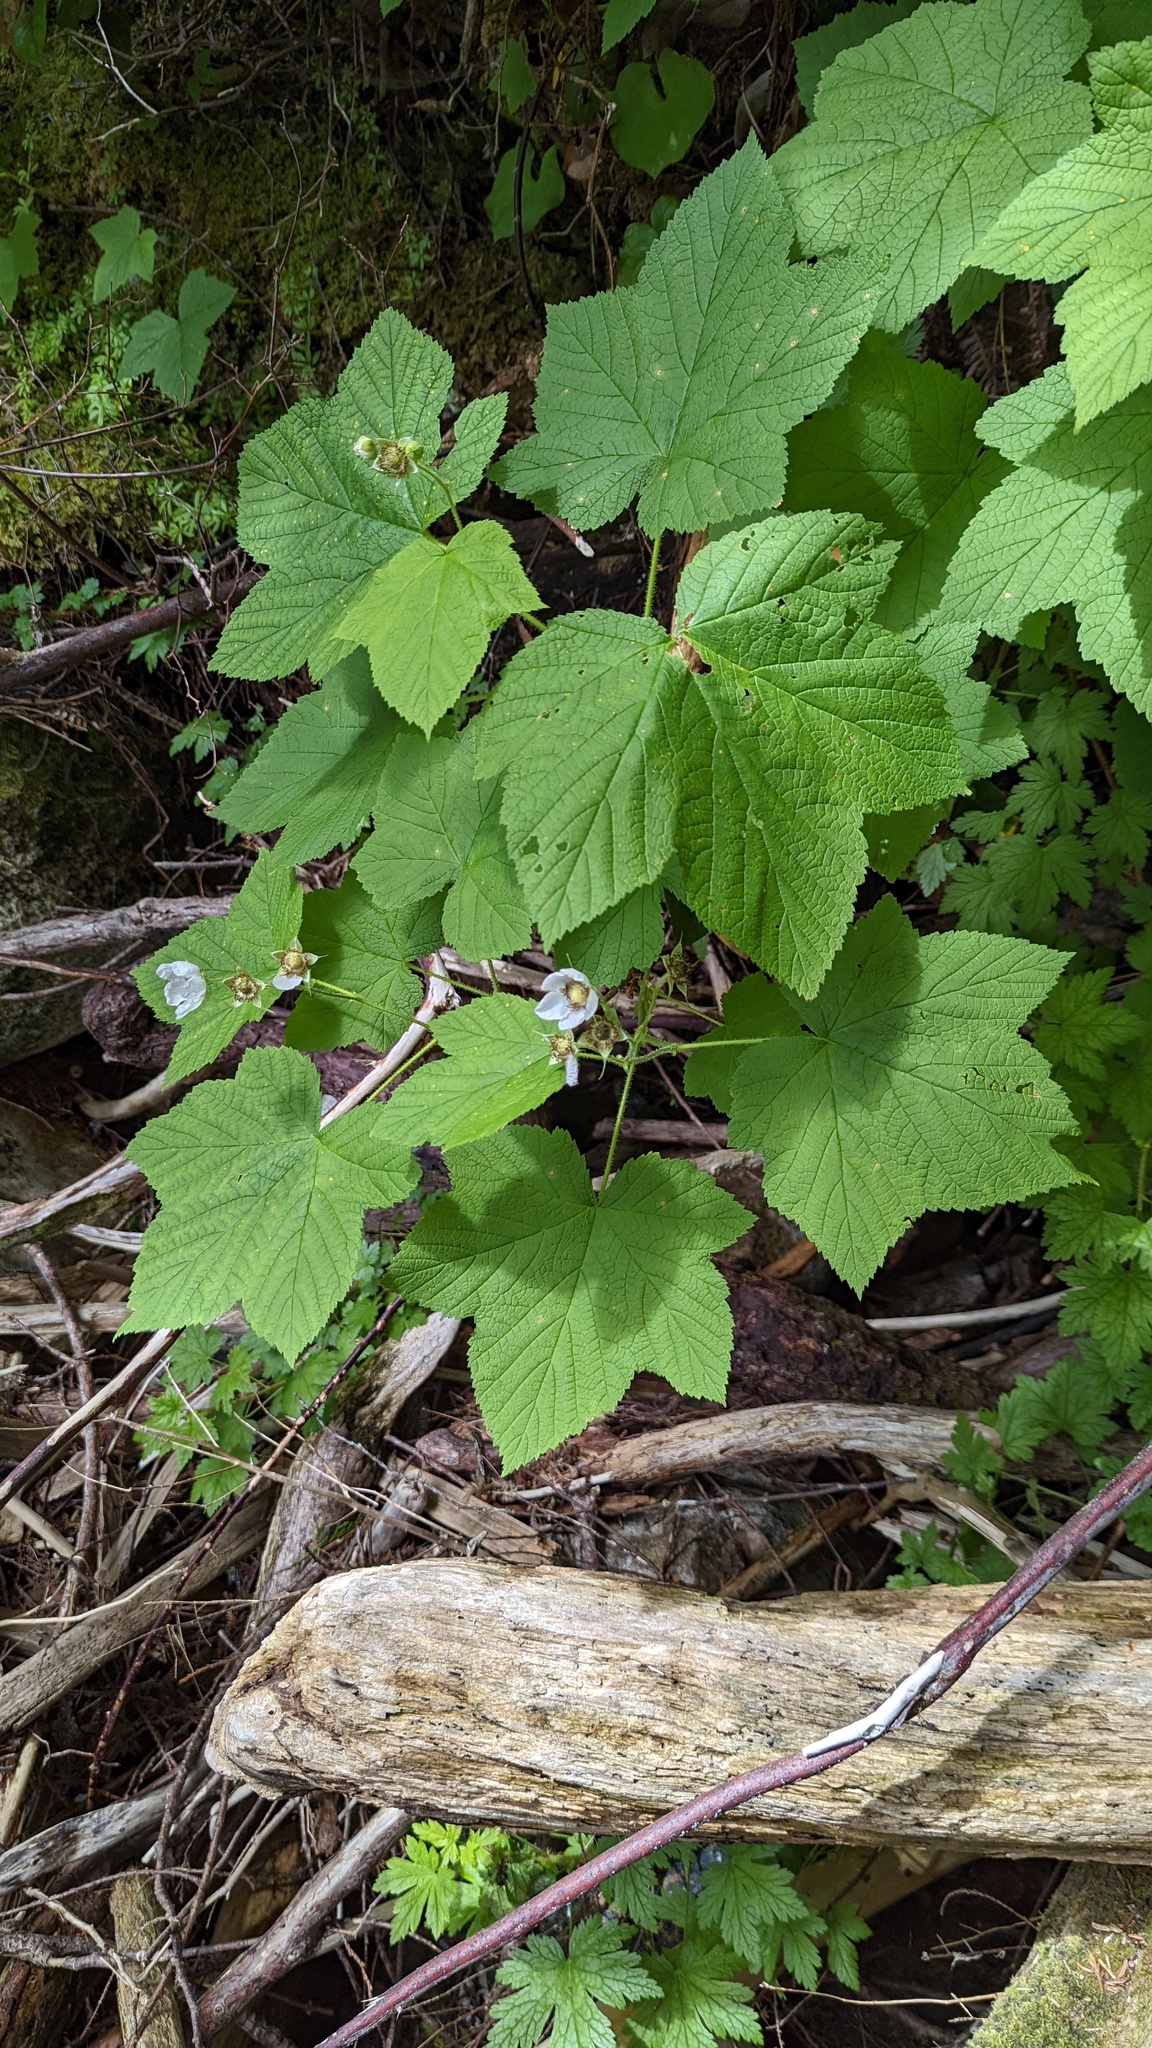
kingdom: Plantae
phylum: Tracheophyta
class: Magnoliopsida
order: Rosales
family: Rosaceae
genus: Rubus
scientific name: Rubus parviflorus
